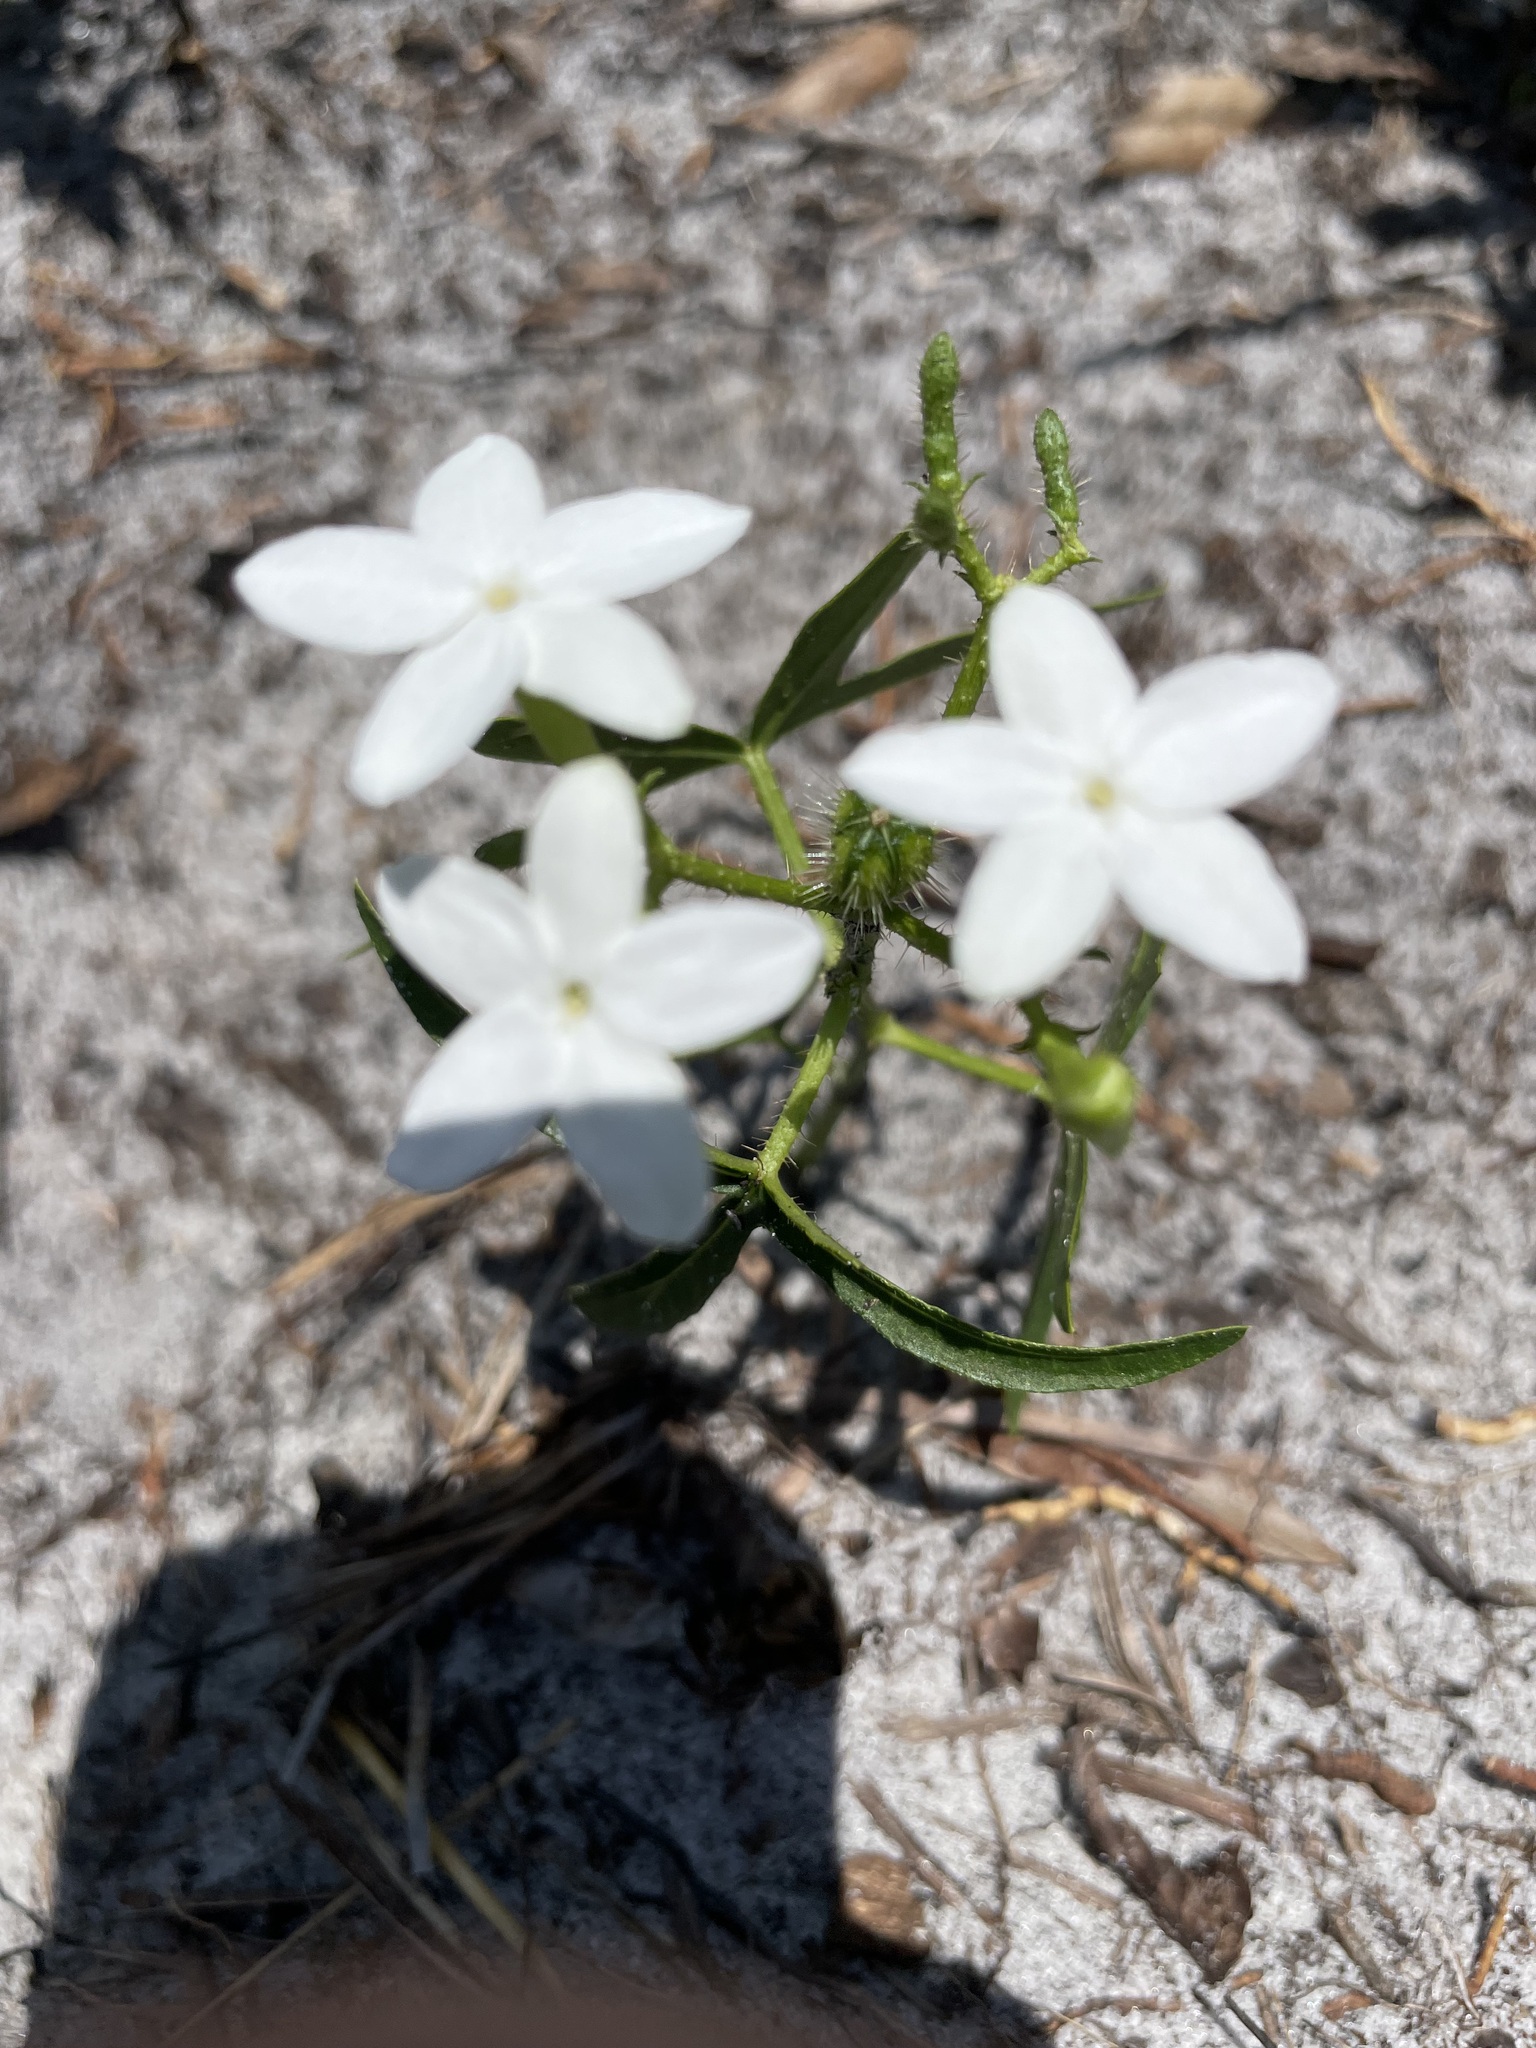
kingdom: Plantae
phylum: Tracheophyta
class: Magnoliopsida
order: Malpighiales
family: Euphorbiaceae
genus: Cnidoscolus
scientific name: Cnidoscolus stimulosus
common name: Bull-nettle
